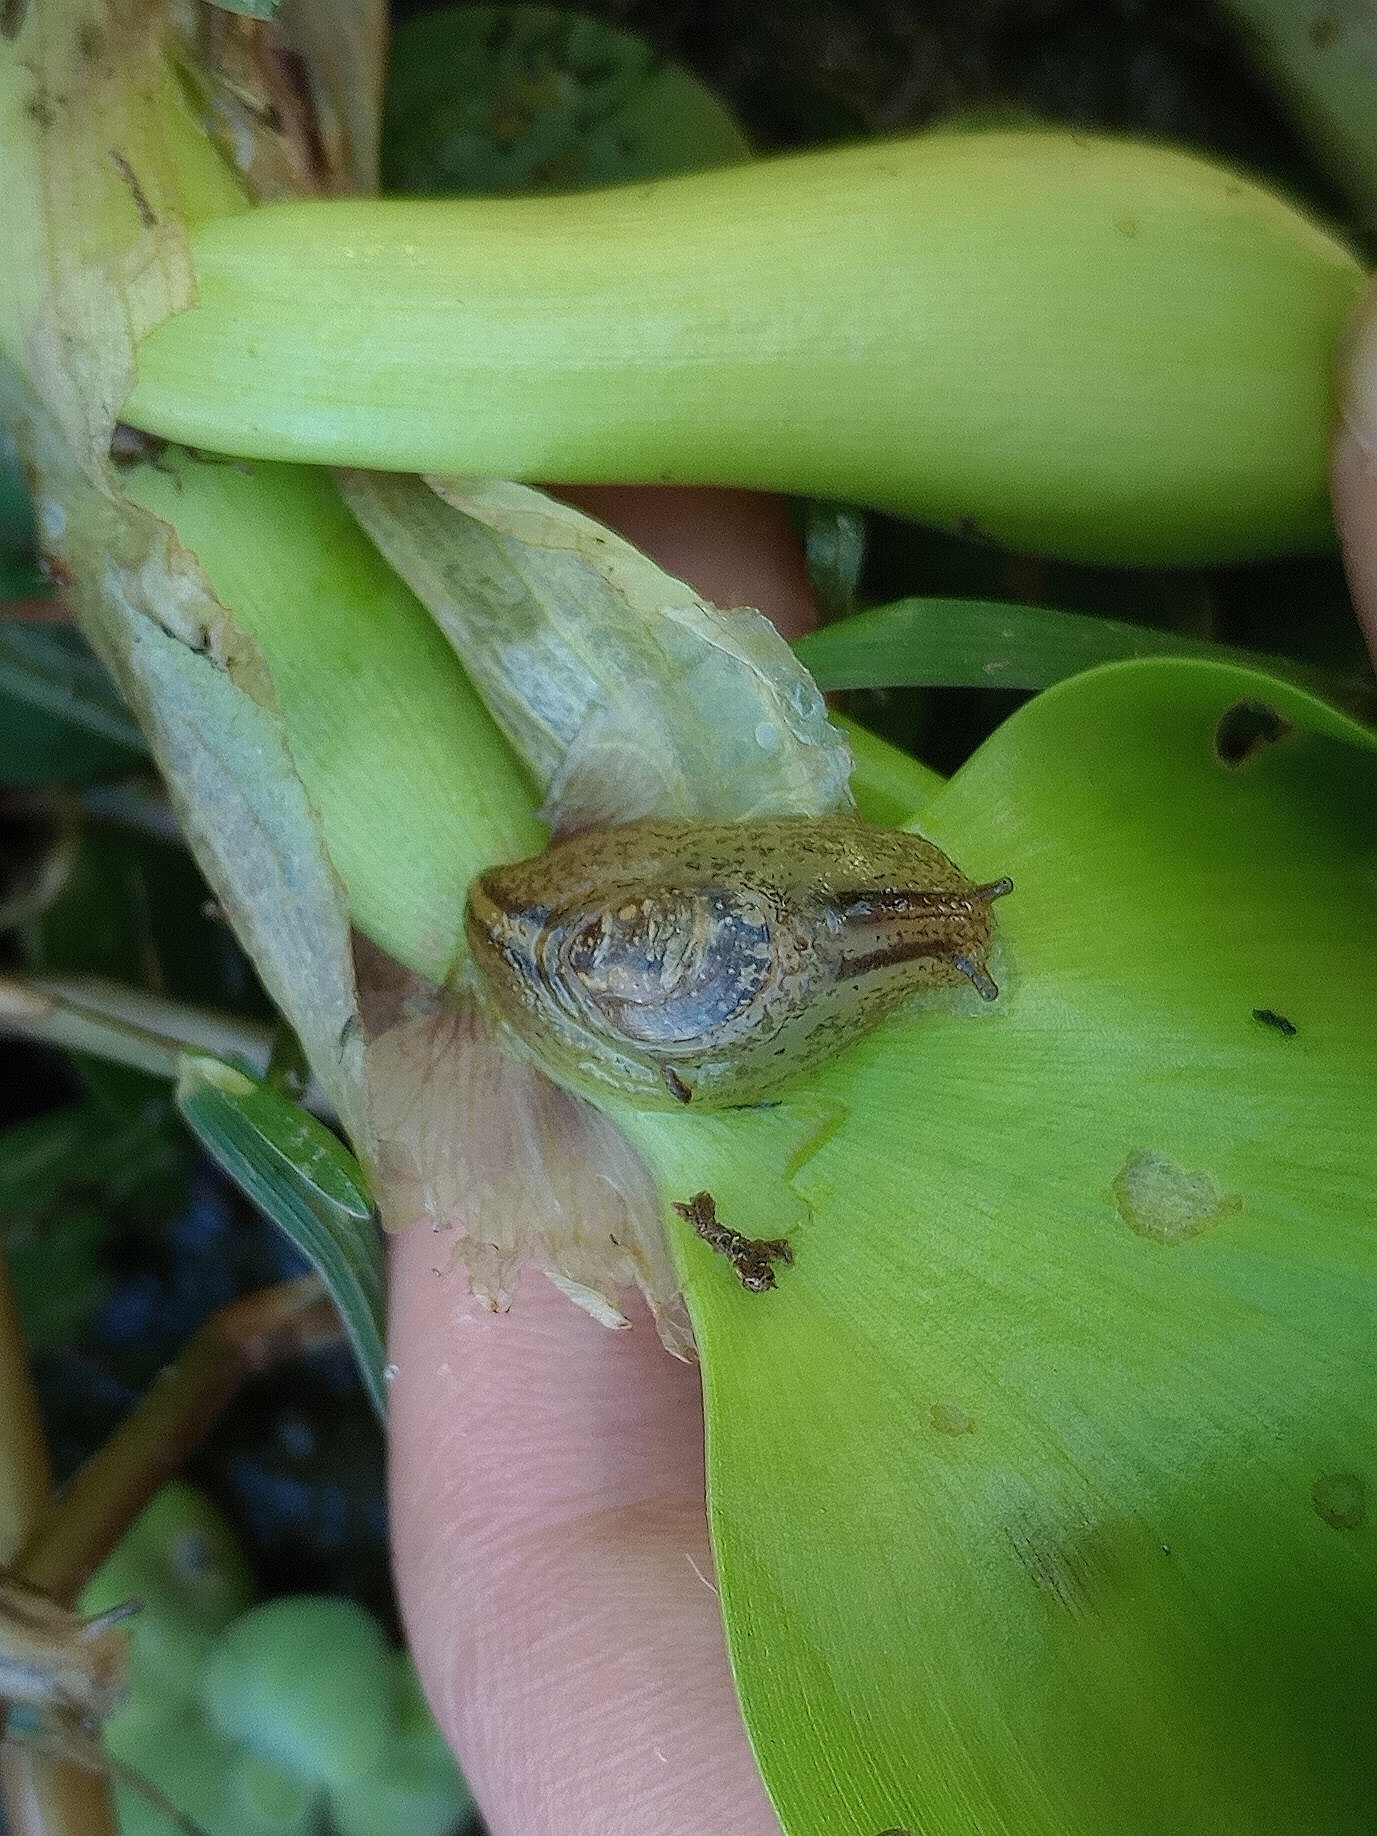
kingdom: Animalia
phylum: Mollusca
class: Gastropoda
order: Stylommatophora
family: Succineidae
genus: Omalonyx
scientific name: Omalonyx
